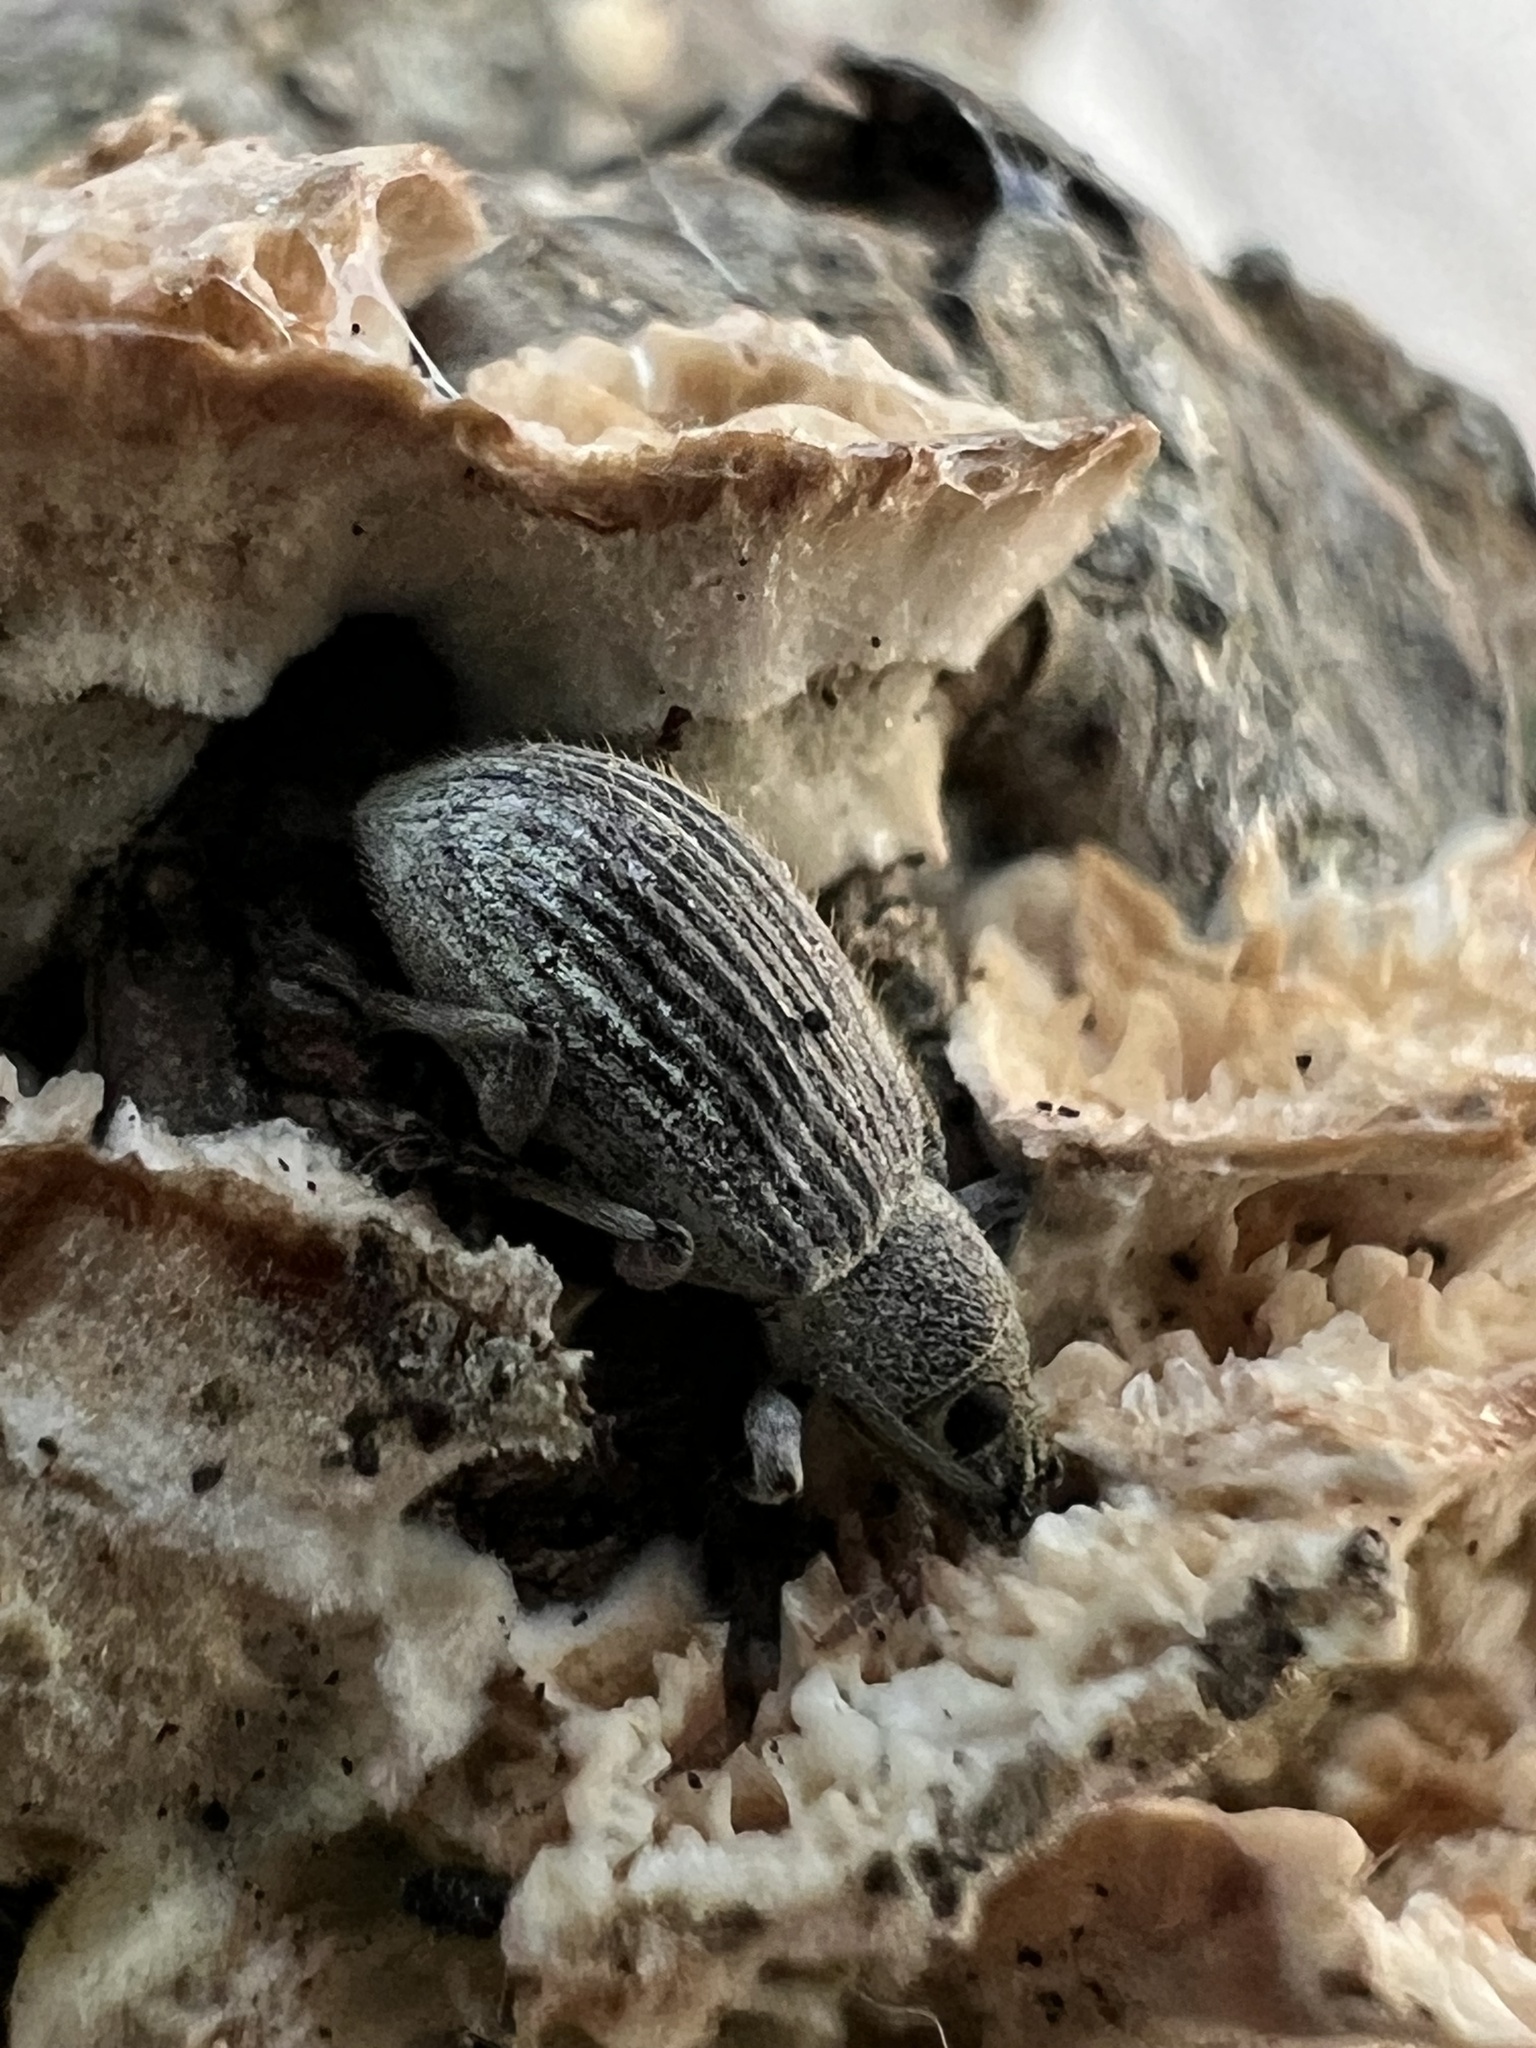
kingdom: Animalia
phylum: Arthropoda
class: Insecta
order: Coleoptera
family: Curculionidae
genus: Cyrtepistomus
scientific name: Cyrtepistomus castaneus
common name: Weevil
